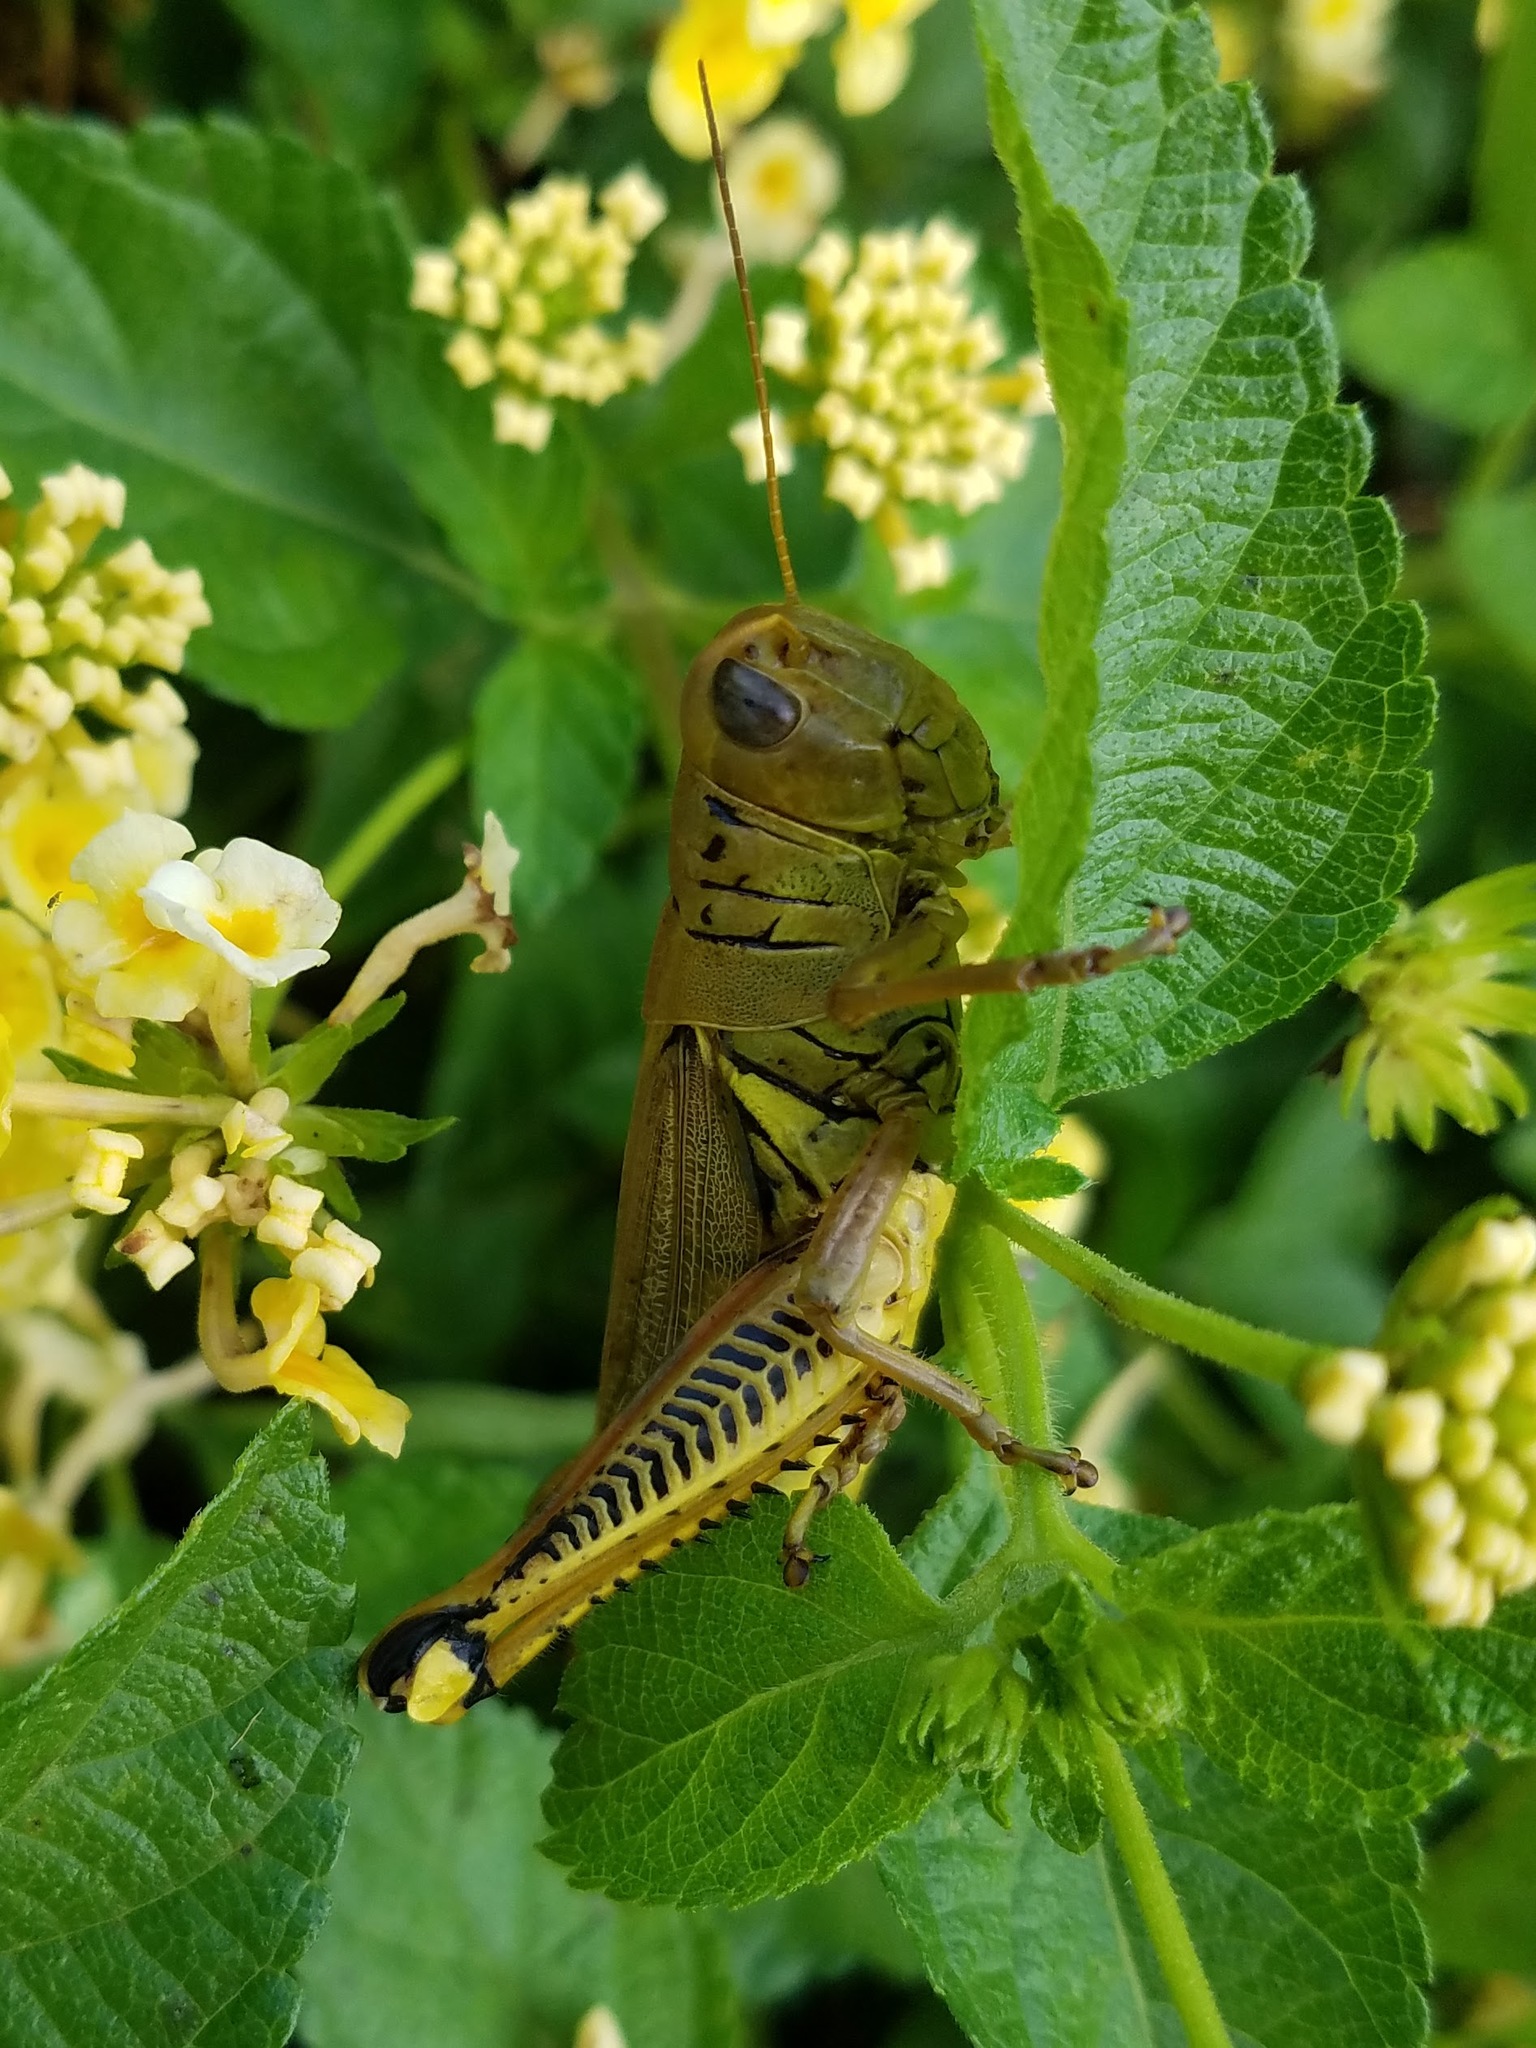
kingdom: Animalia
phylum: Arthropoda
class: Insecta
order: Orthoptera
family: Acrididae
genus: Melanoplus
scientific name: Melanoplus differentialis
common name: Differential grasshopper
